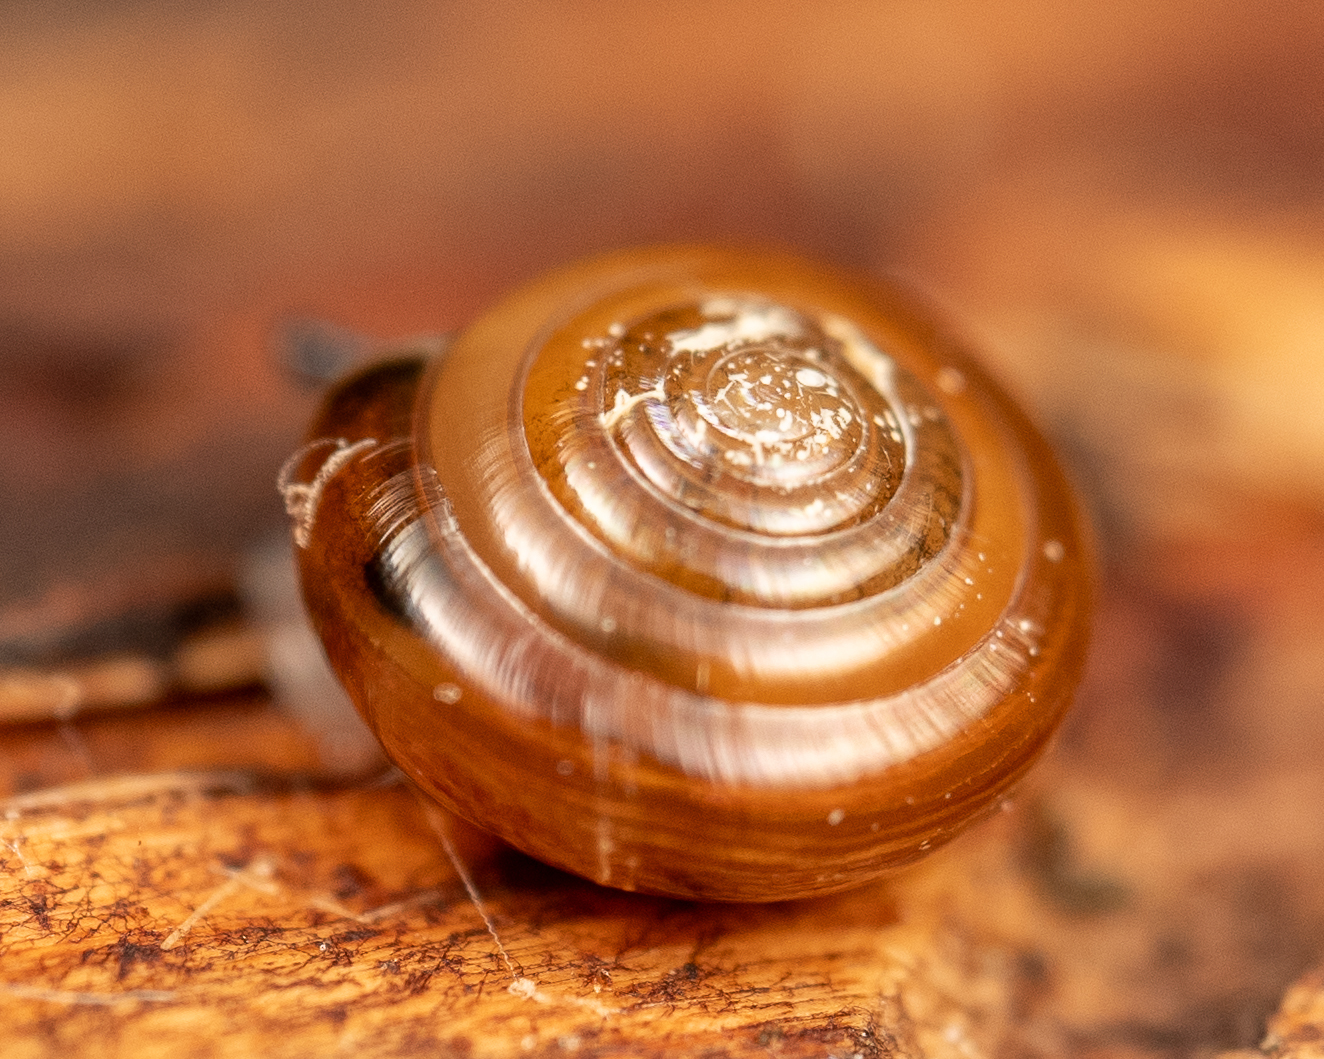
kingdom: Animalia
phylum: Mollusca
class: Gastropoda
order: Stylommatophora
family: Pristilomatidae
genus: Pristiloma
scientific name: Pristiloma idahoense
